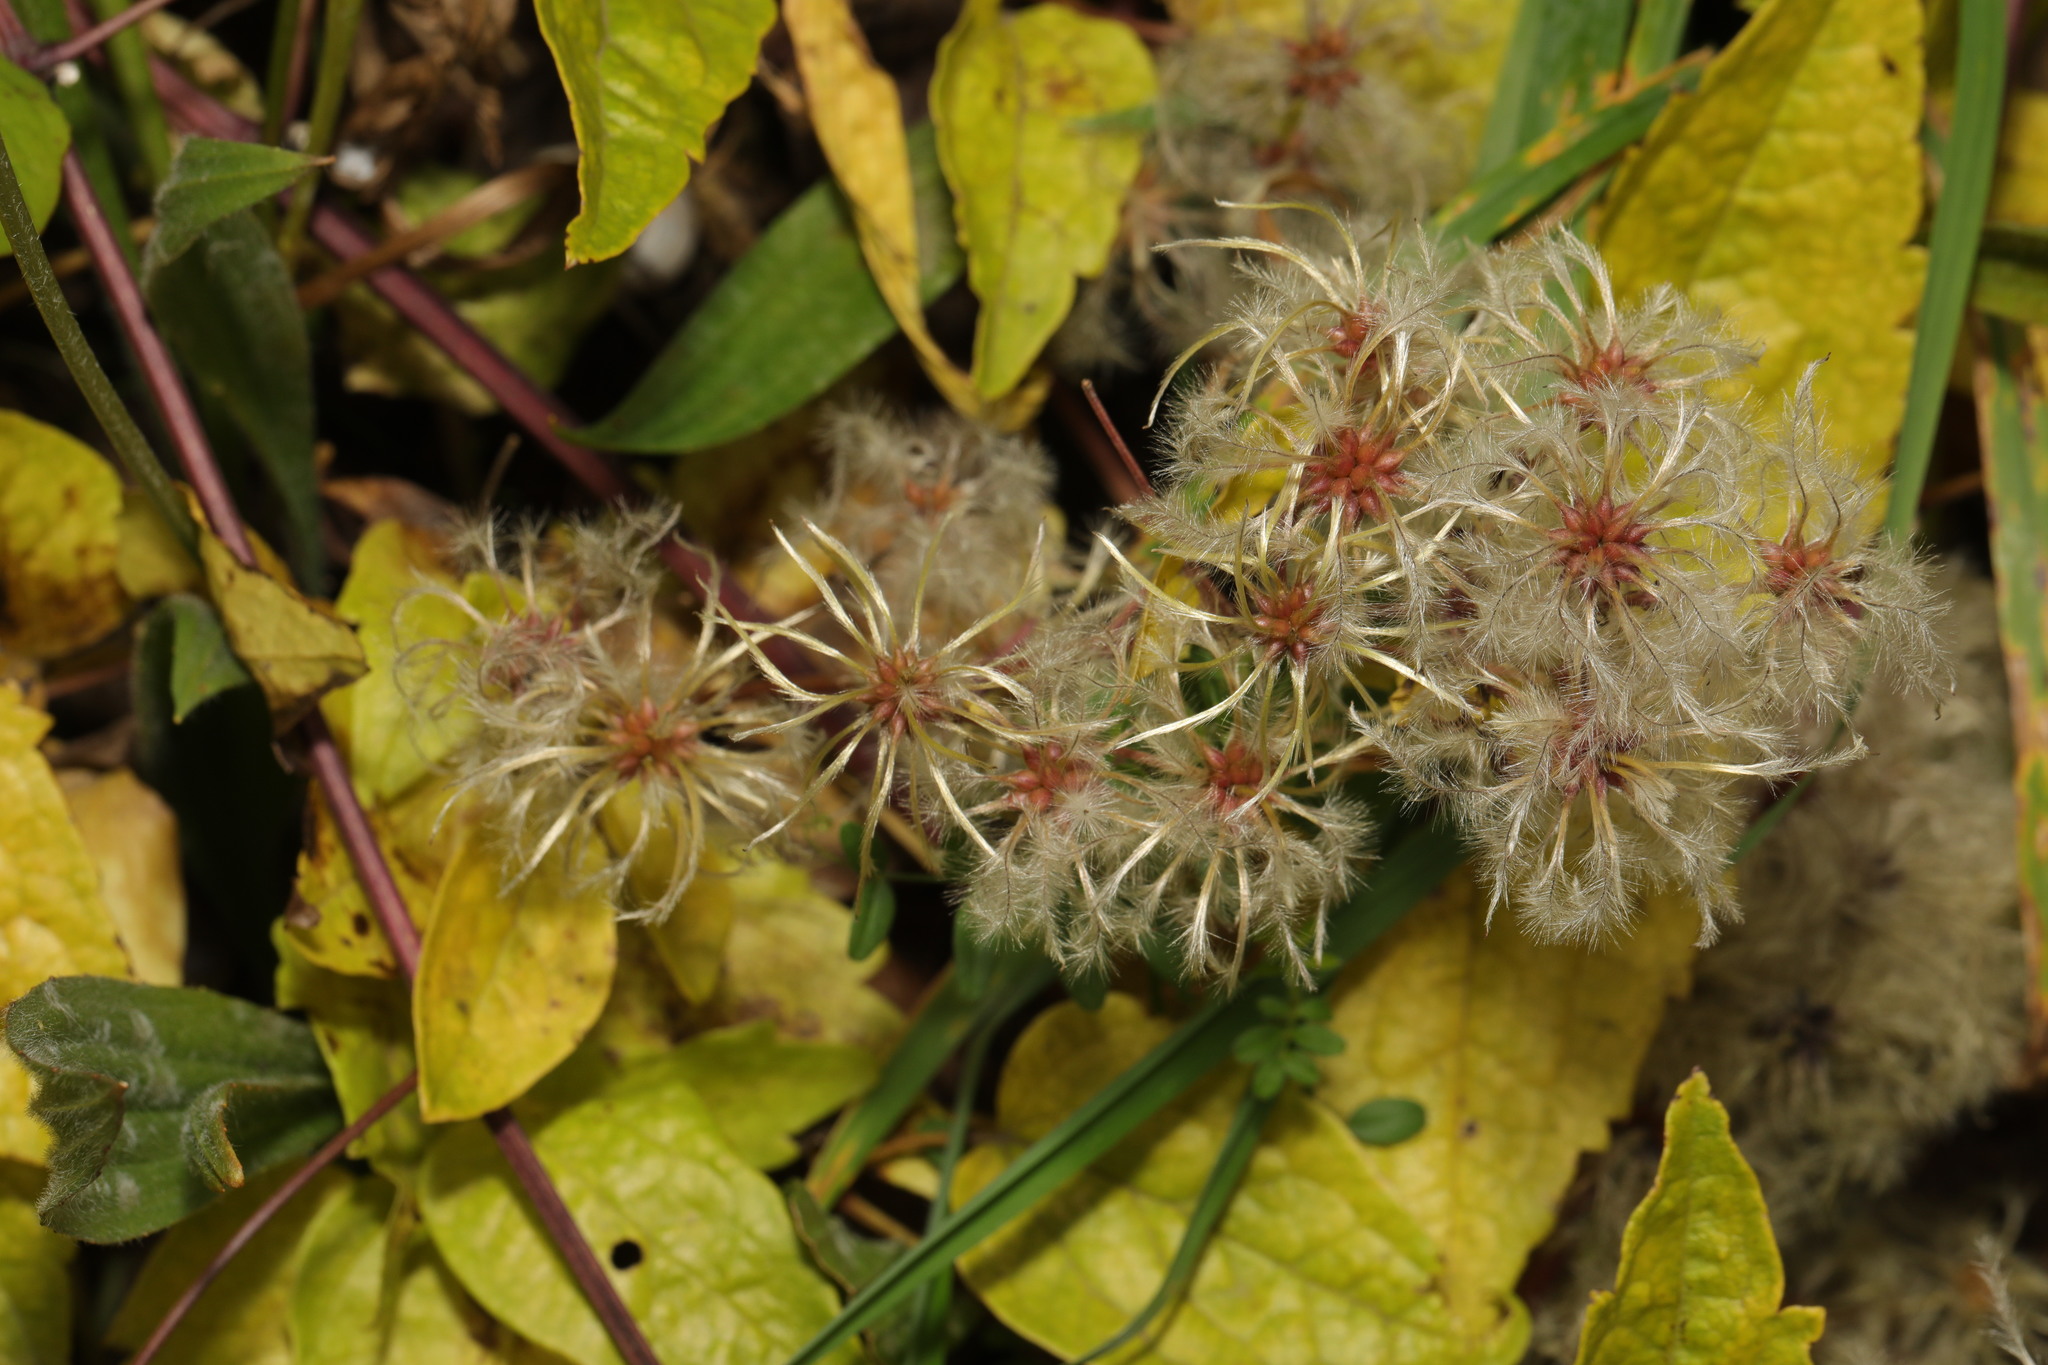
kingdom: Plantae
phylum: Tracheophyta
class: Magnoliopsida
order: Ranunculales
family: Ranunculaceae
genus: Clematis
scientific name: Clematis vitalba
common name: Evergreen clematis
